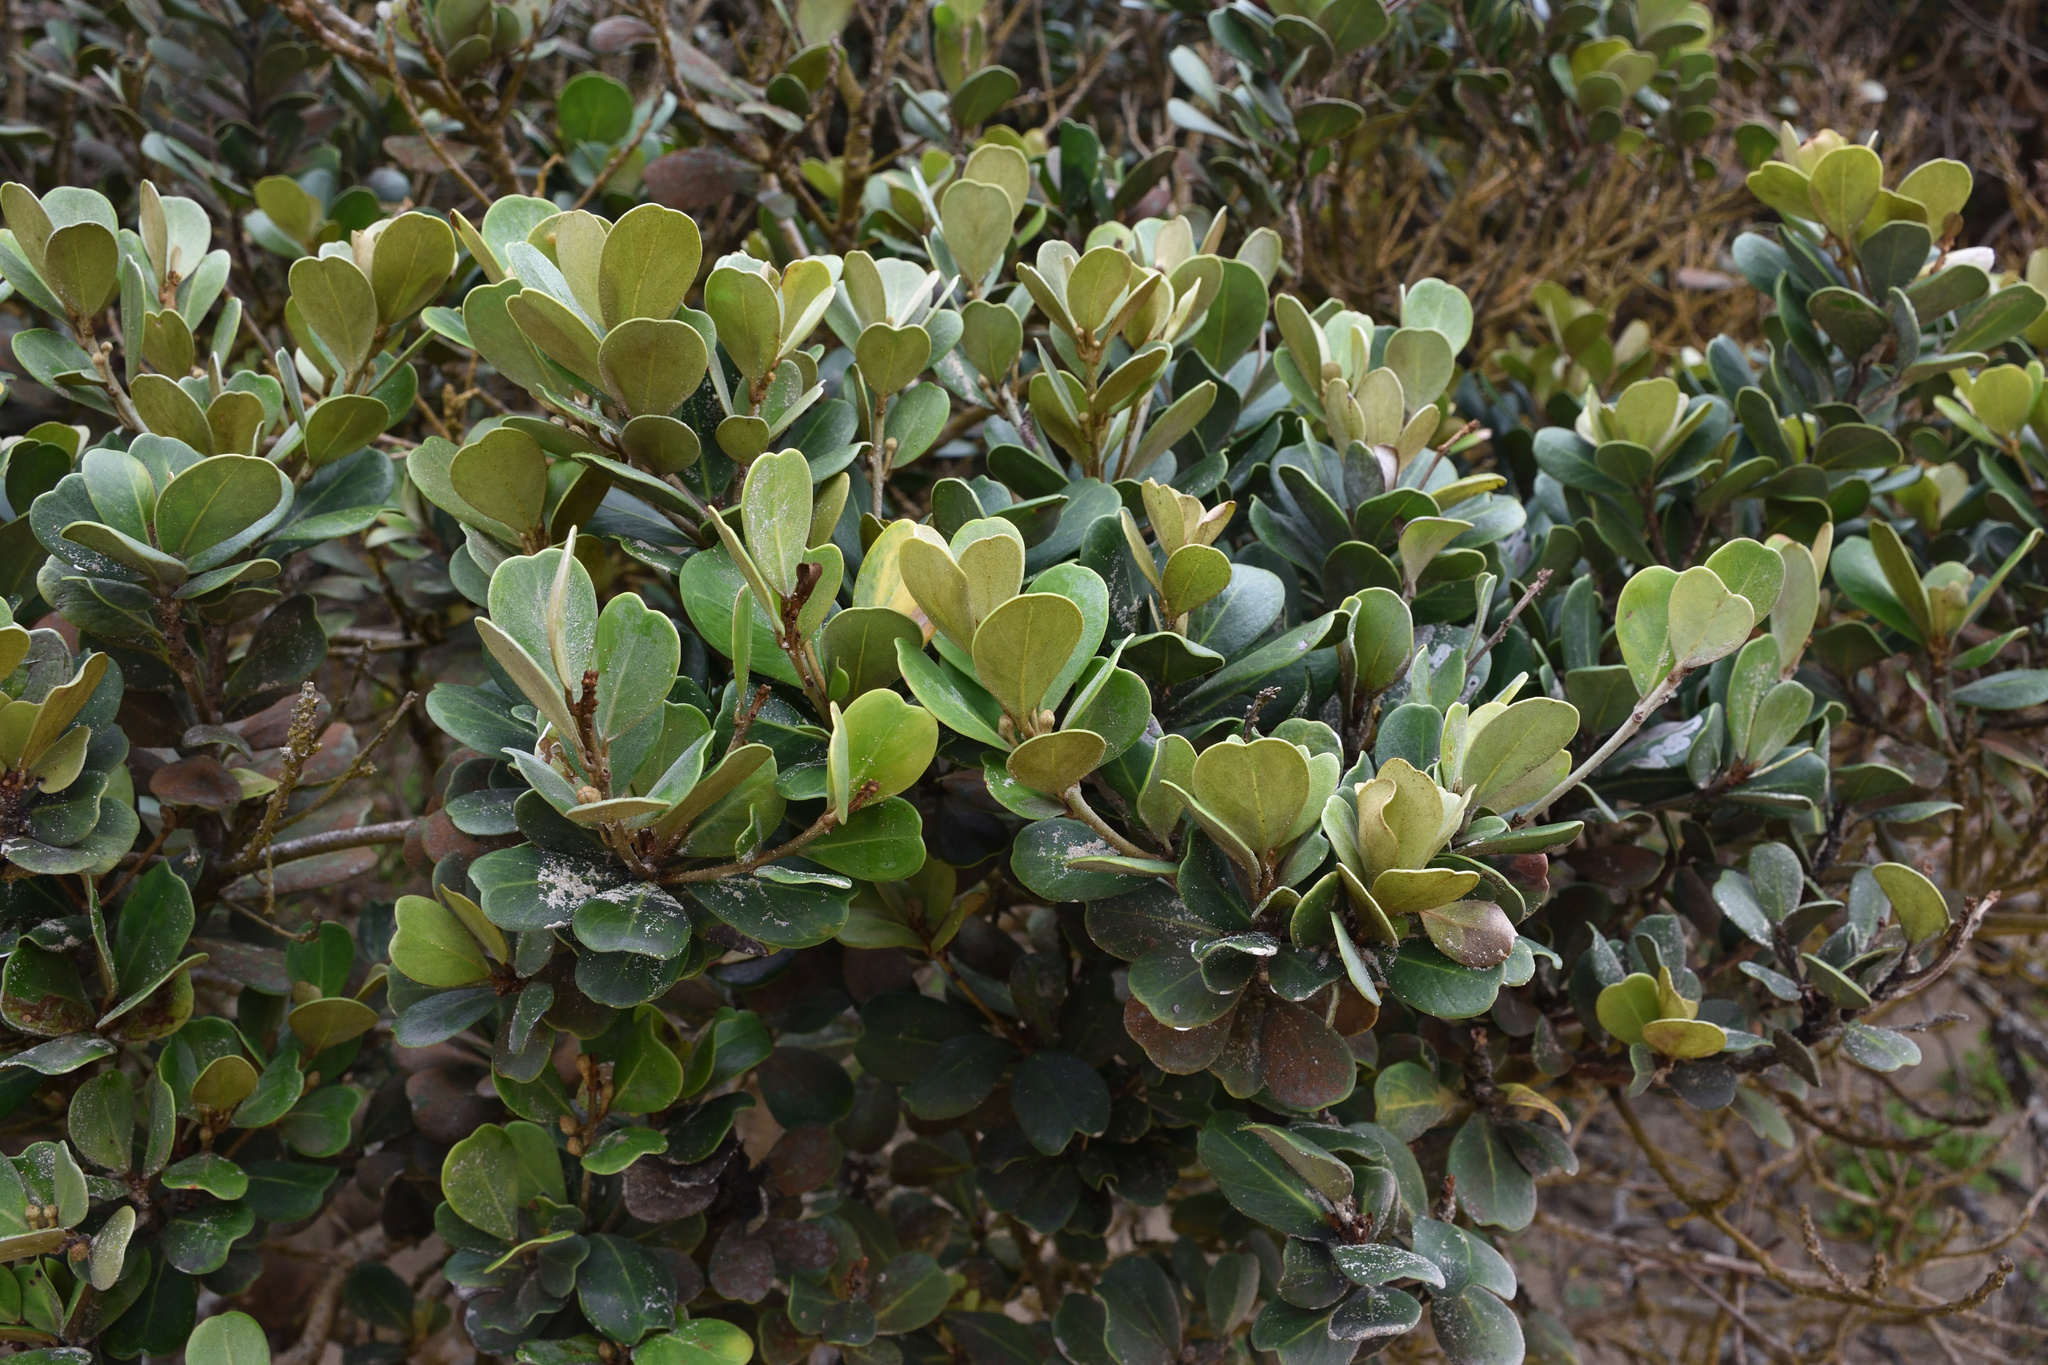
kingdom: Plantae
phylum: Tracheophyta
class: Magnoliopsida
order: Ericales
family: Sapotaceae
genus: Mimusops
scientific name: Mimusops caffra
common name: Coastal red milkwood
